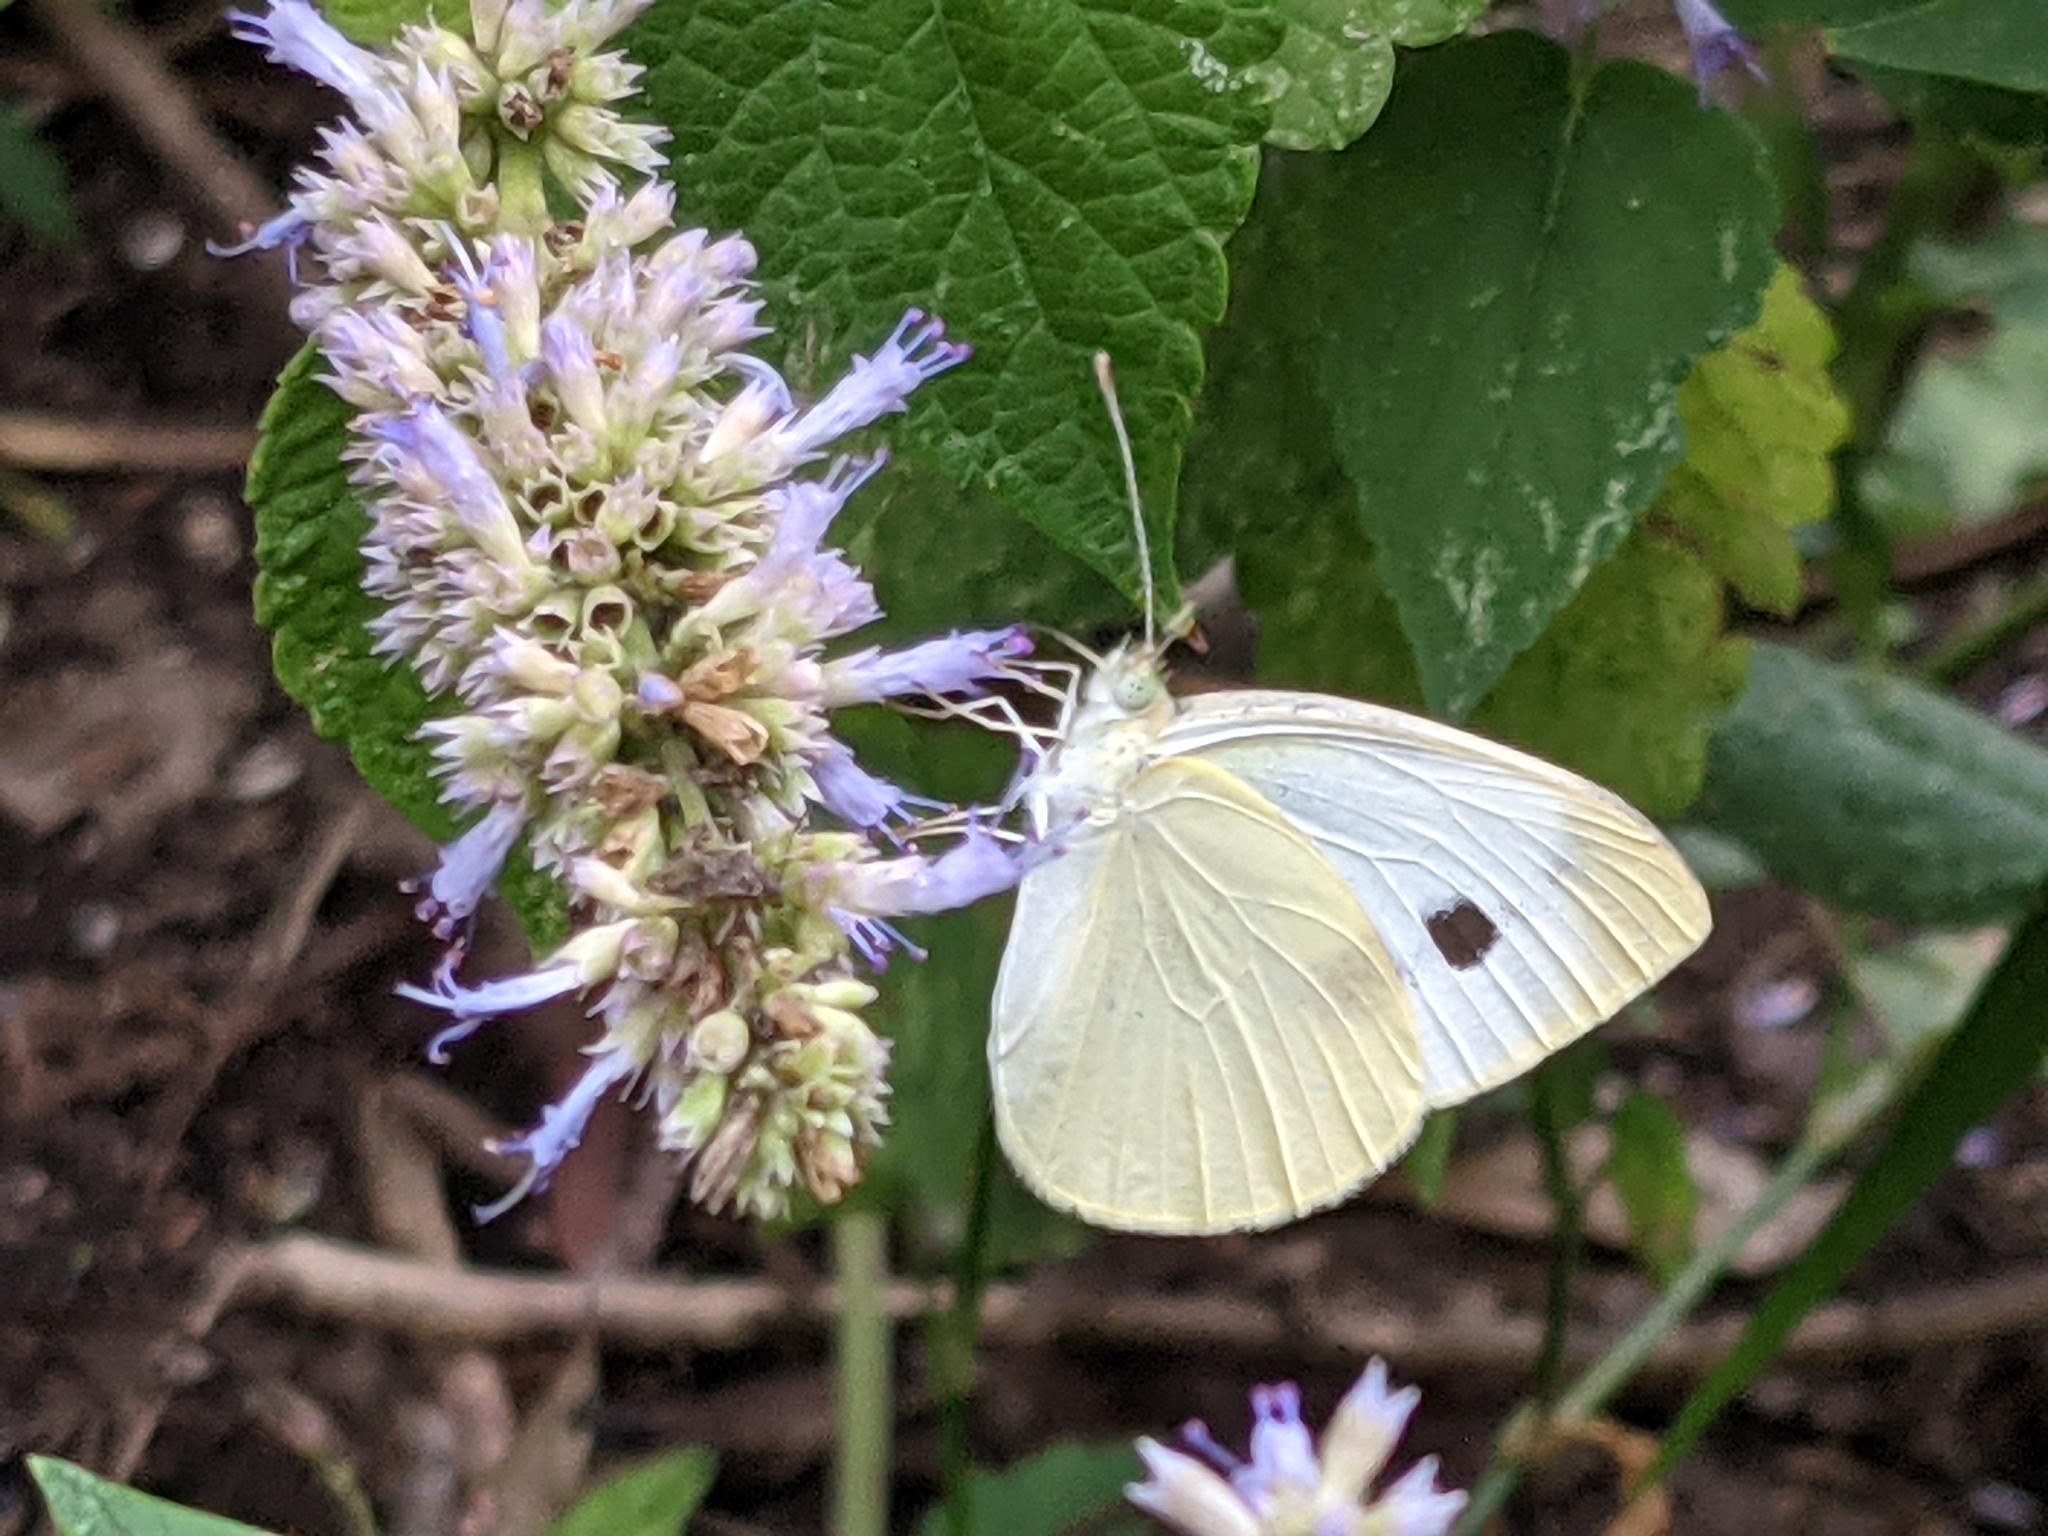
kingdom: Animalia
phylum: Arthropoda
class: Insecta
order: Lepidoptera
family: Pieridae
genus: Pieris
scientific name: Pieris rapae
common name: Small white
